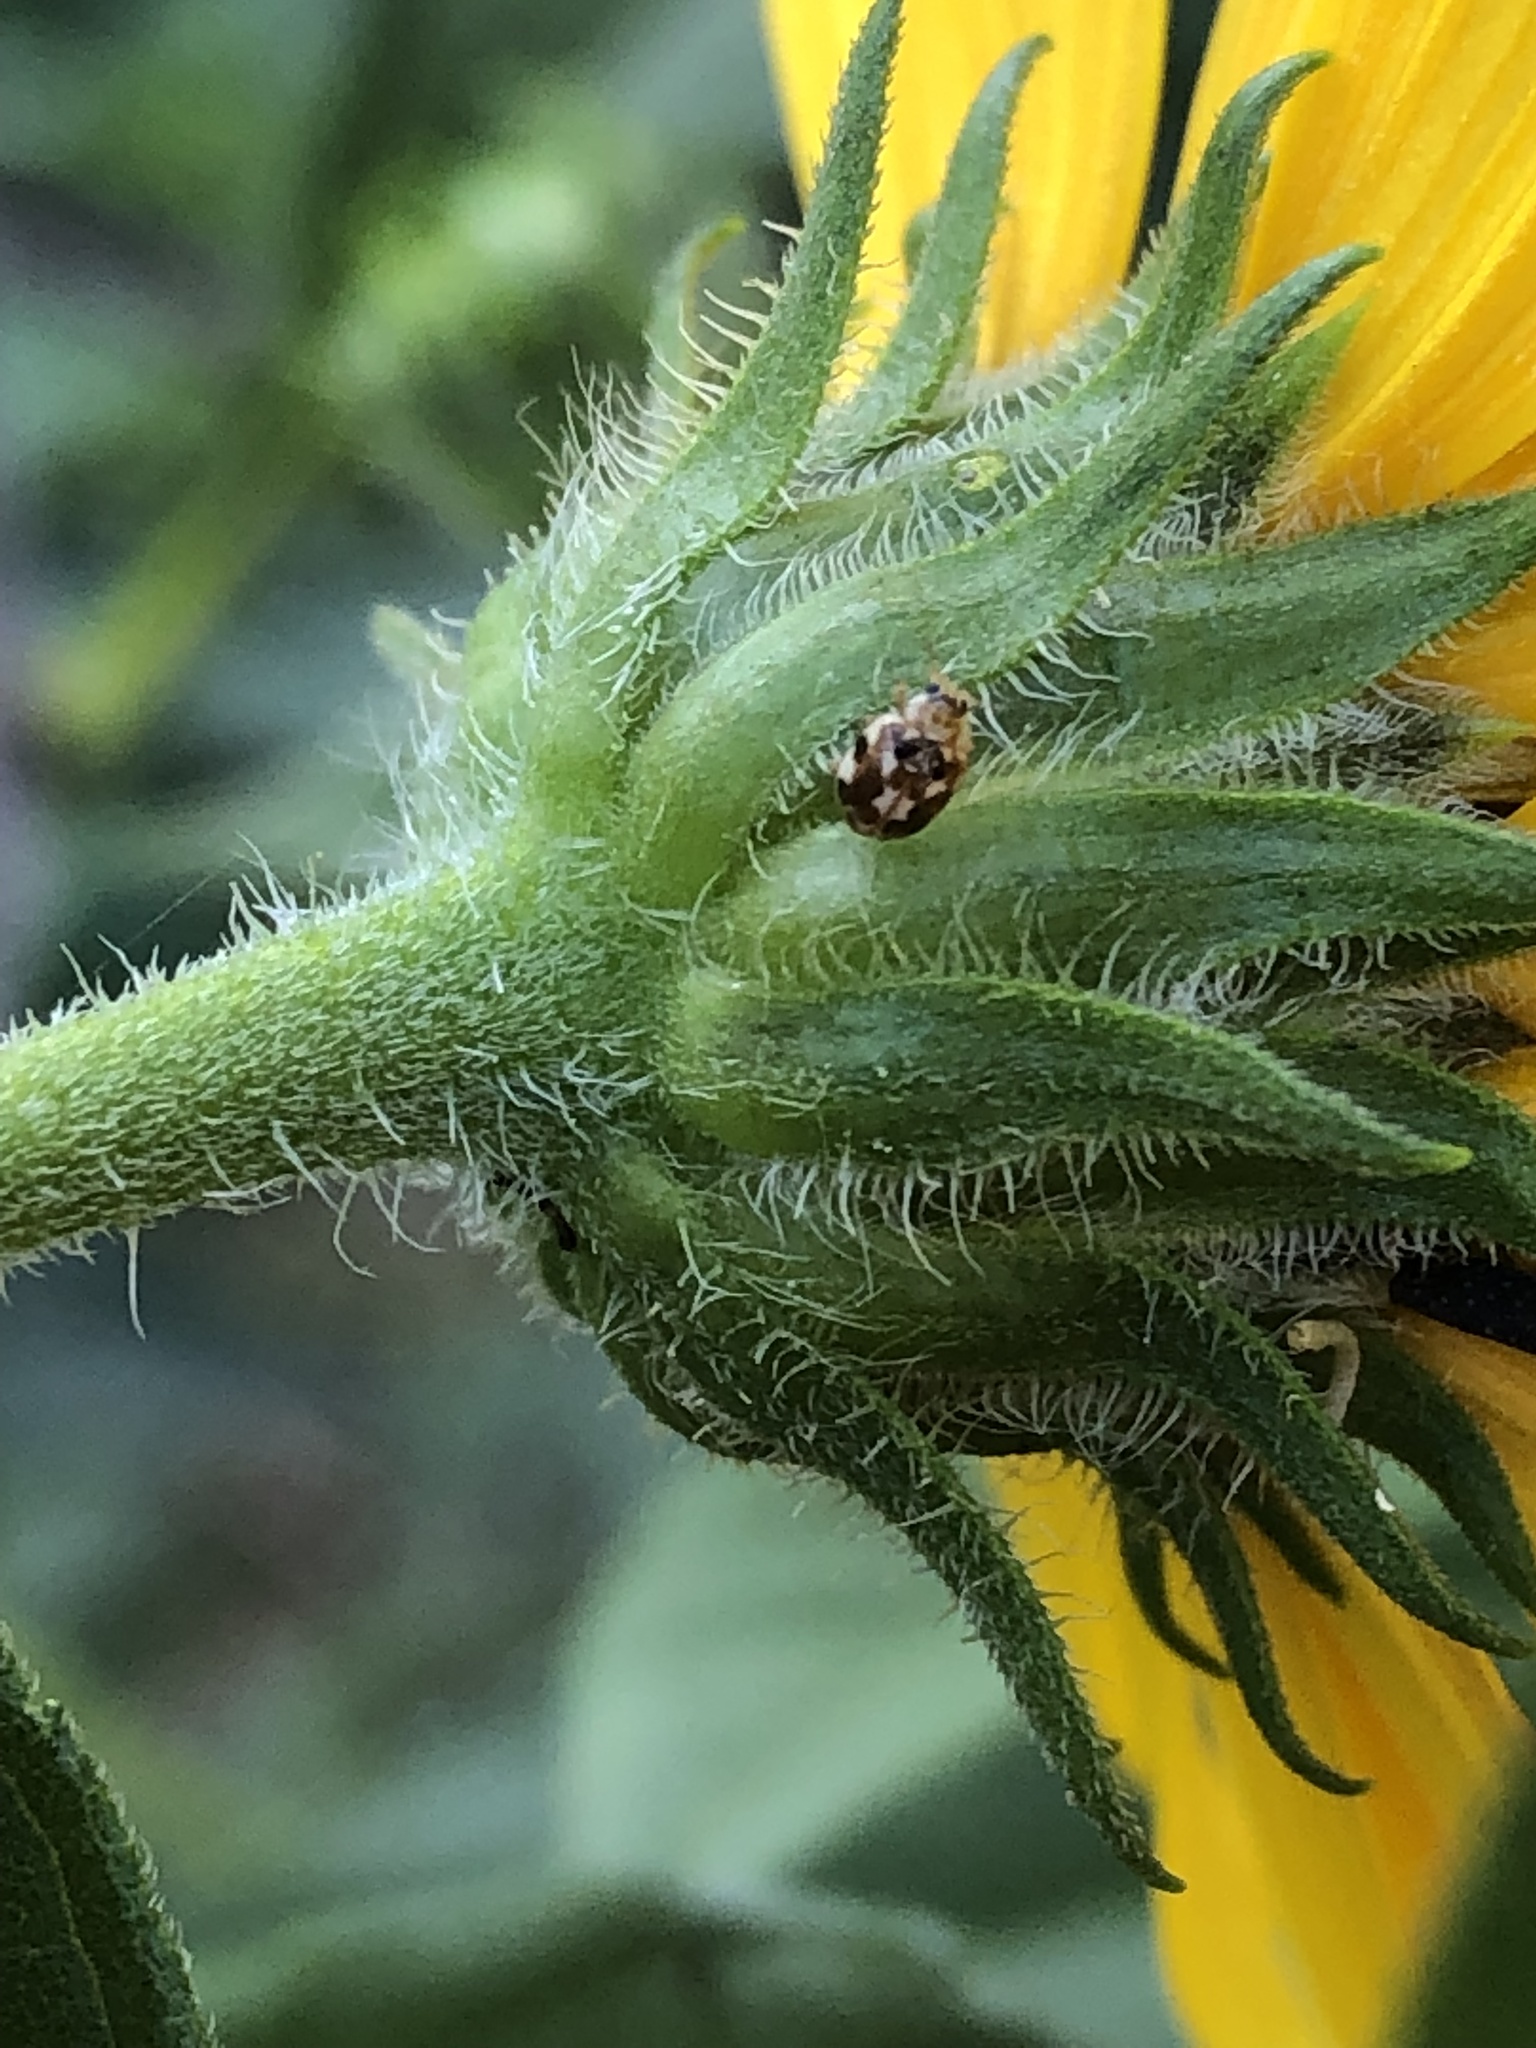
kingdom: Animalia
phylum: Arthropoda
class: Insecta
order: Coleoptera
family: Coccinellidae
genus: Psyllobora
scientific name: Psyllobora vigintimaculata
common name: Ladybird beetle
